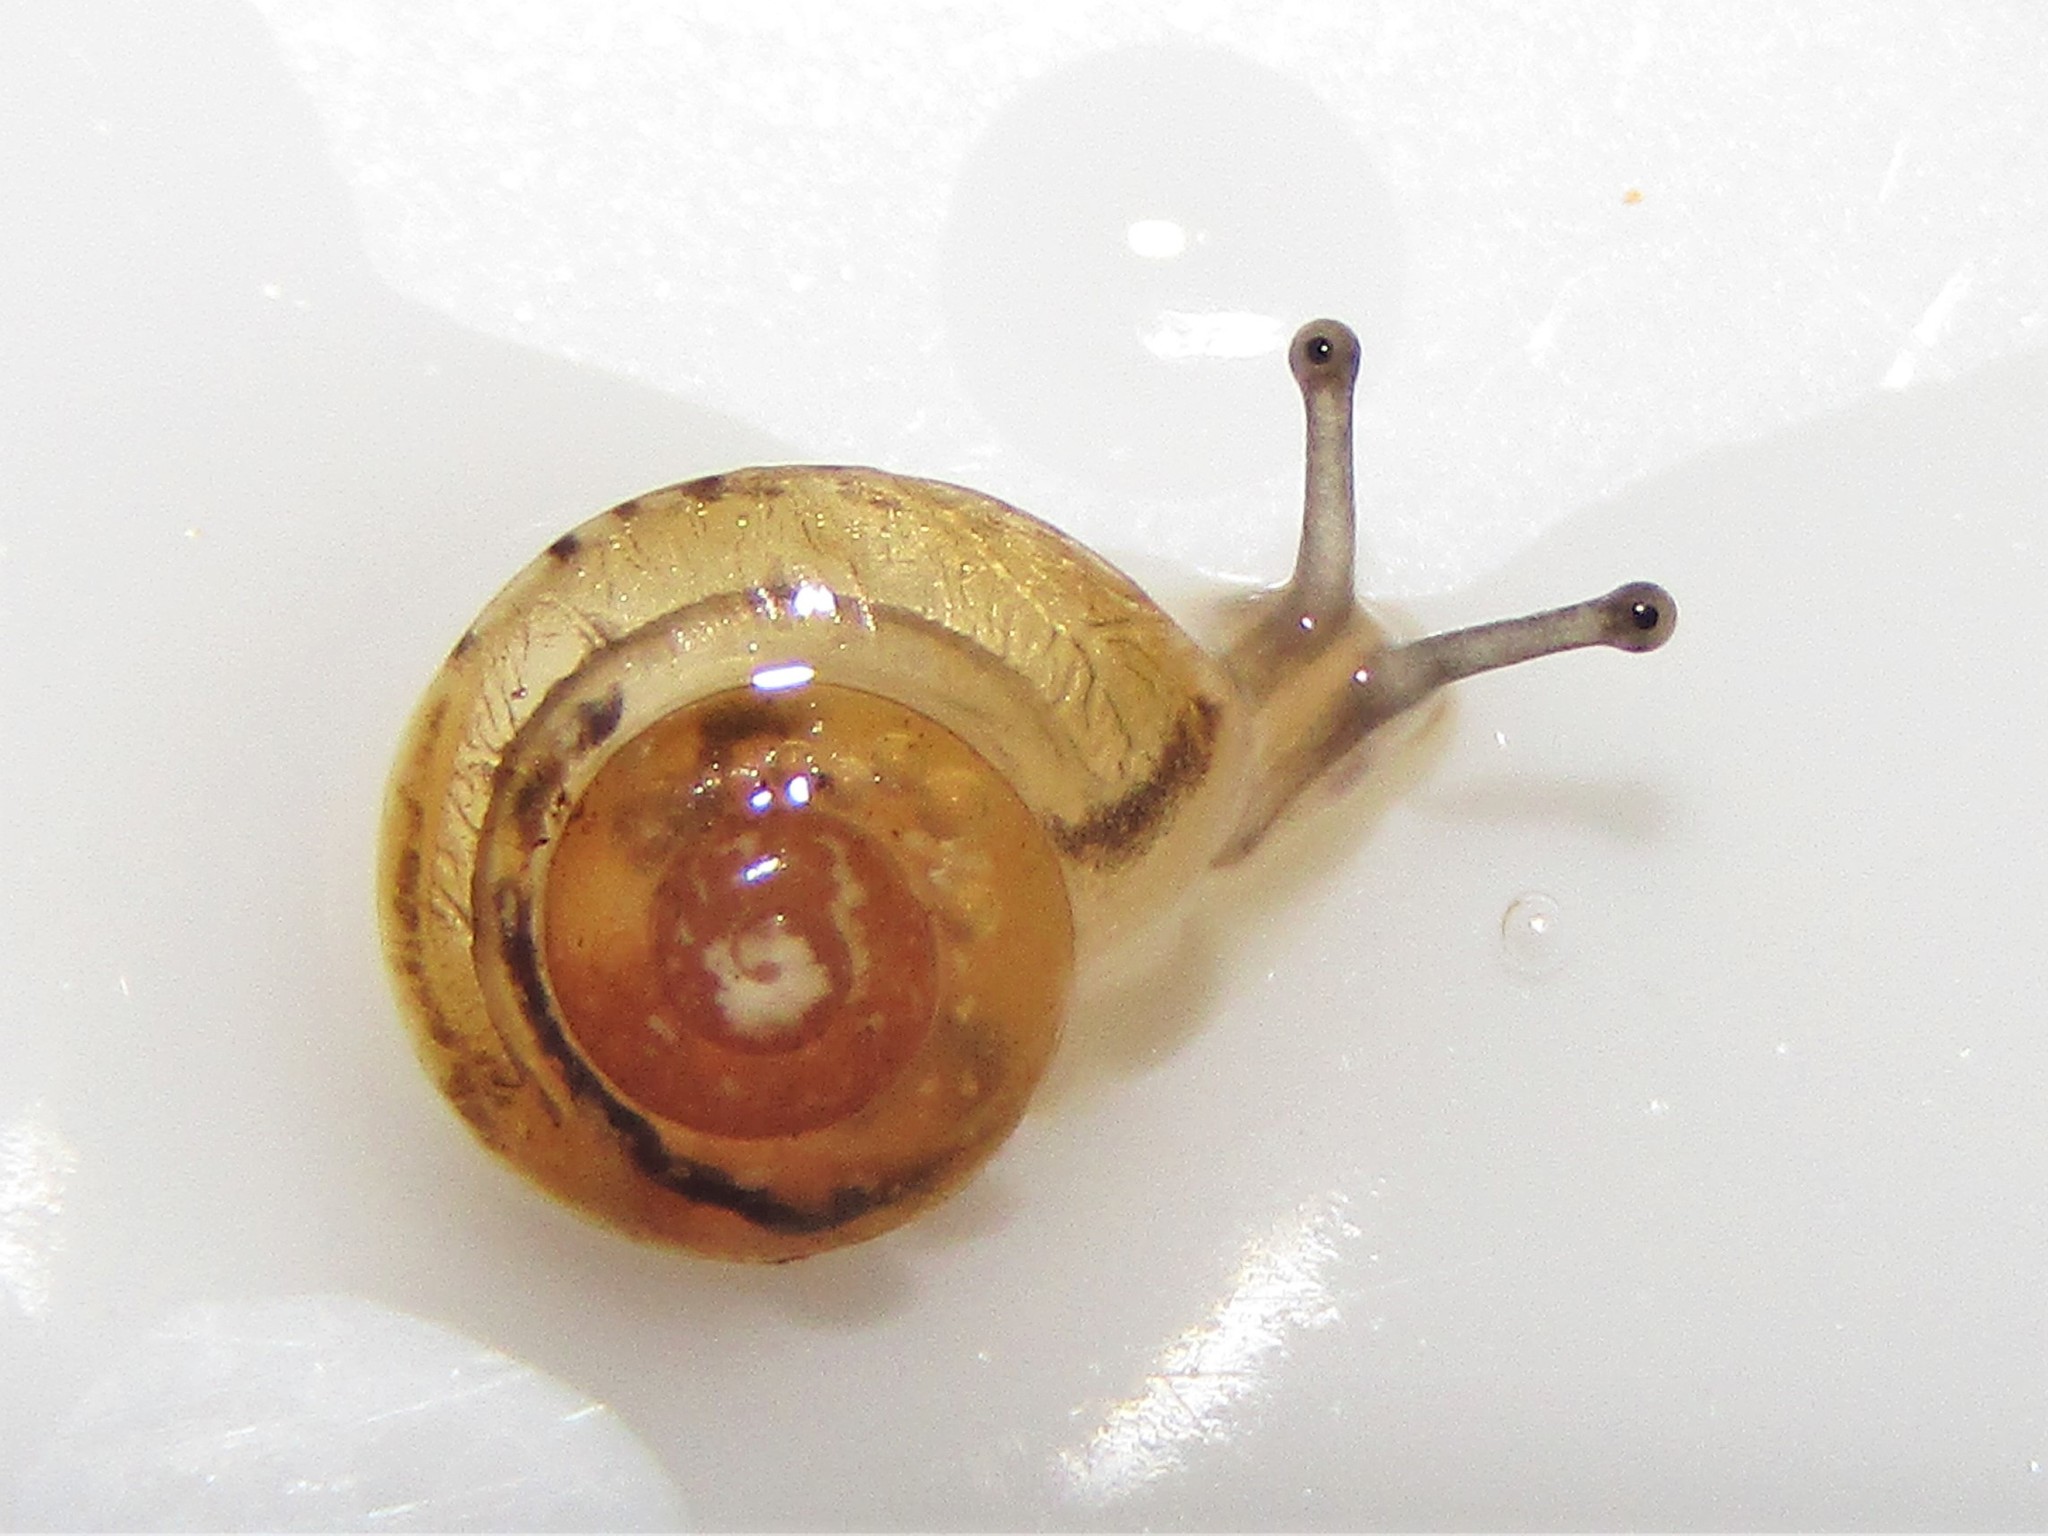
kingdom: Animalia
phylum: Mollusca
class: Gastropoda
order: Stylommatophora
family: Hygromiidae
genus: Hygromia
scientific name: Hygromia cinctella
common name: Girdled snail
